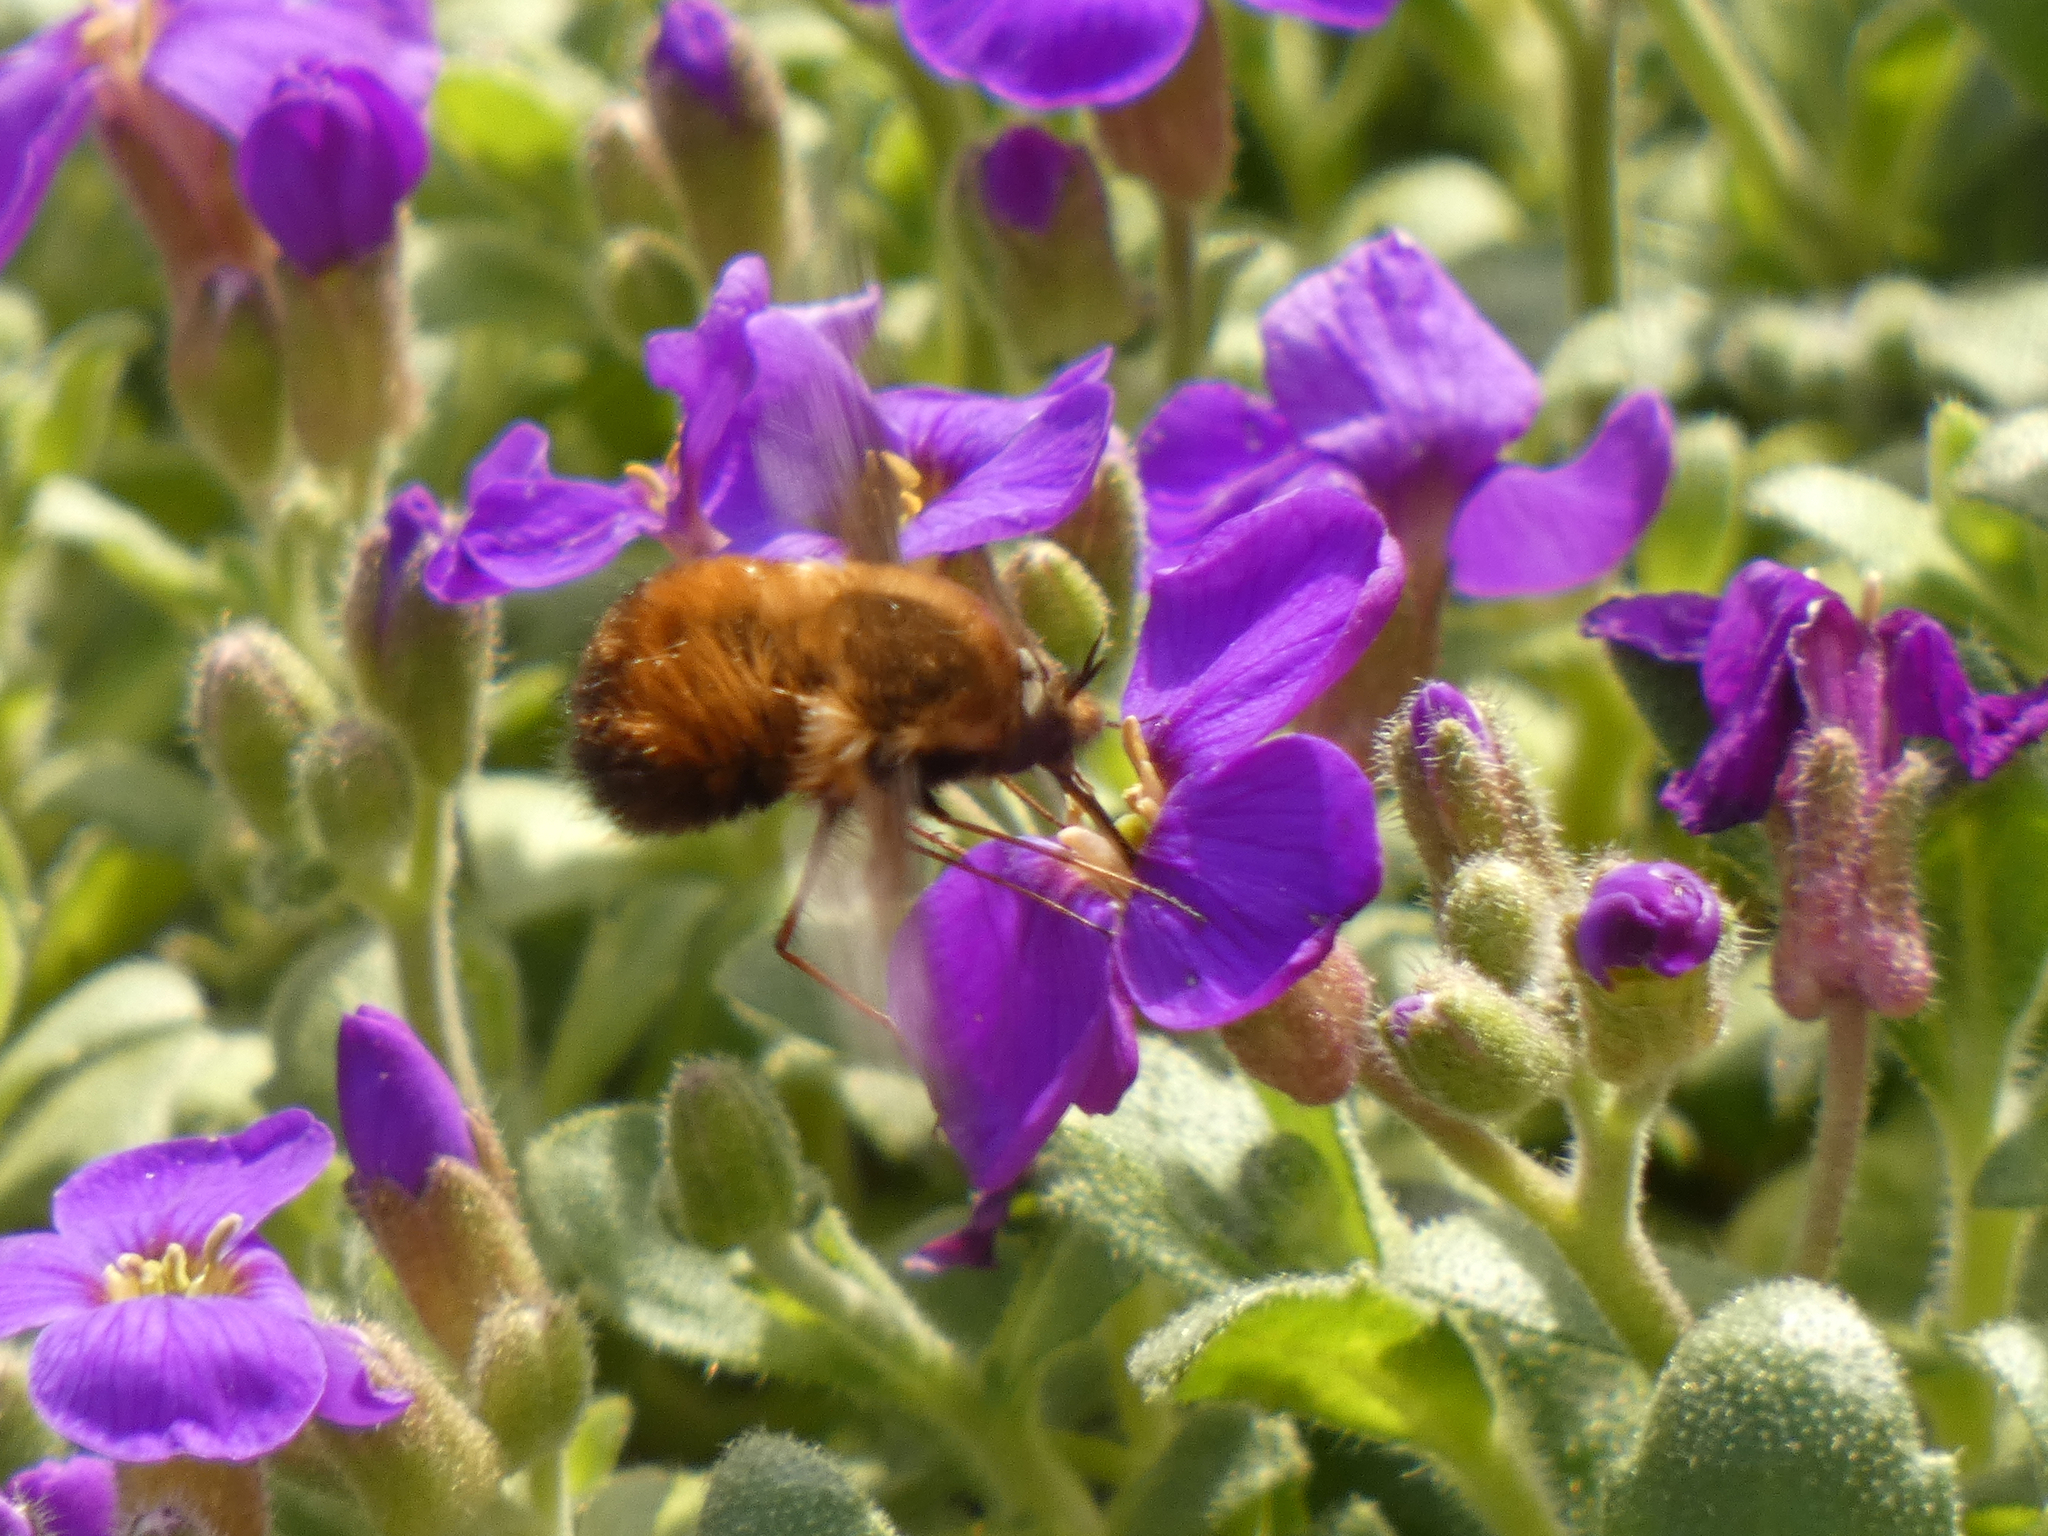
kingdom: Animalia
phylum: Arthropoda
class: Insecta
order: Diptera
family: Bombyliidae
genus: Bombylius
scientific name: Bombylius discolor
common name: Dotted bee-fly
